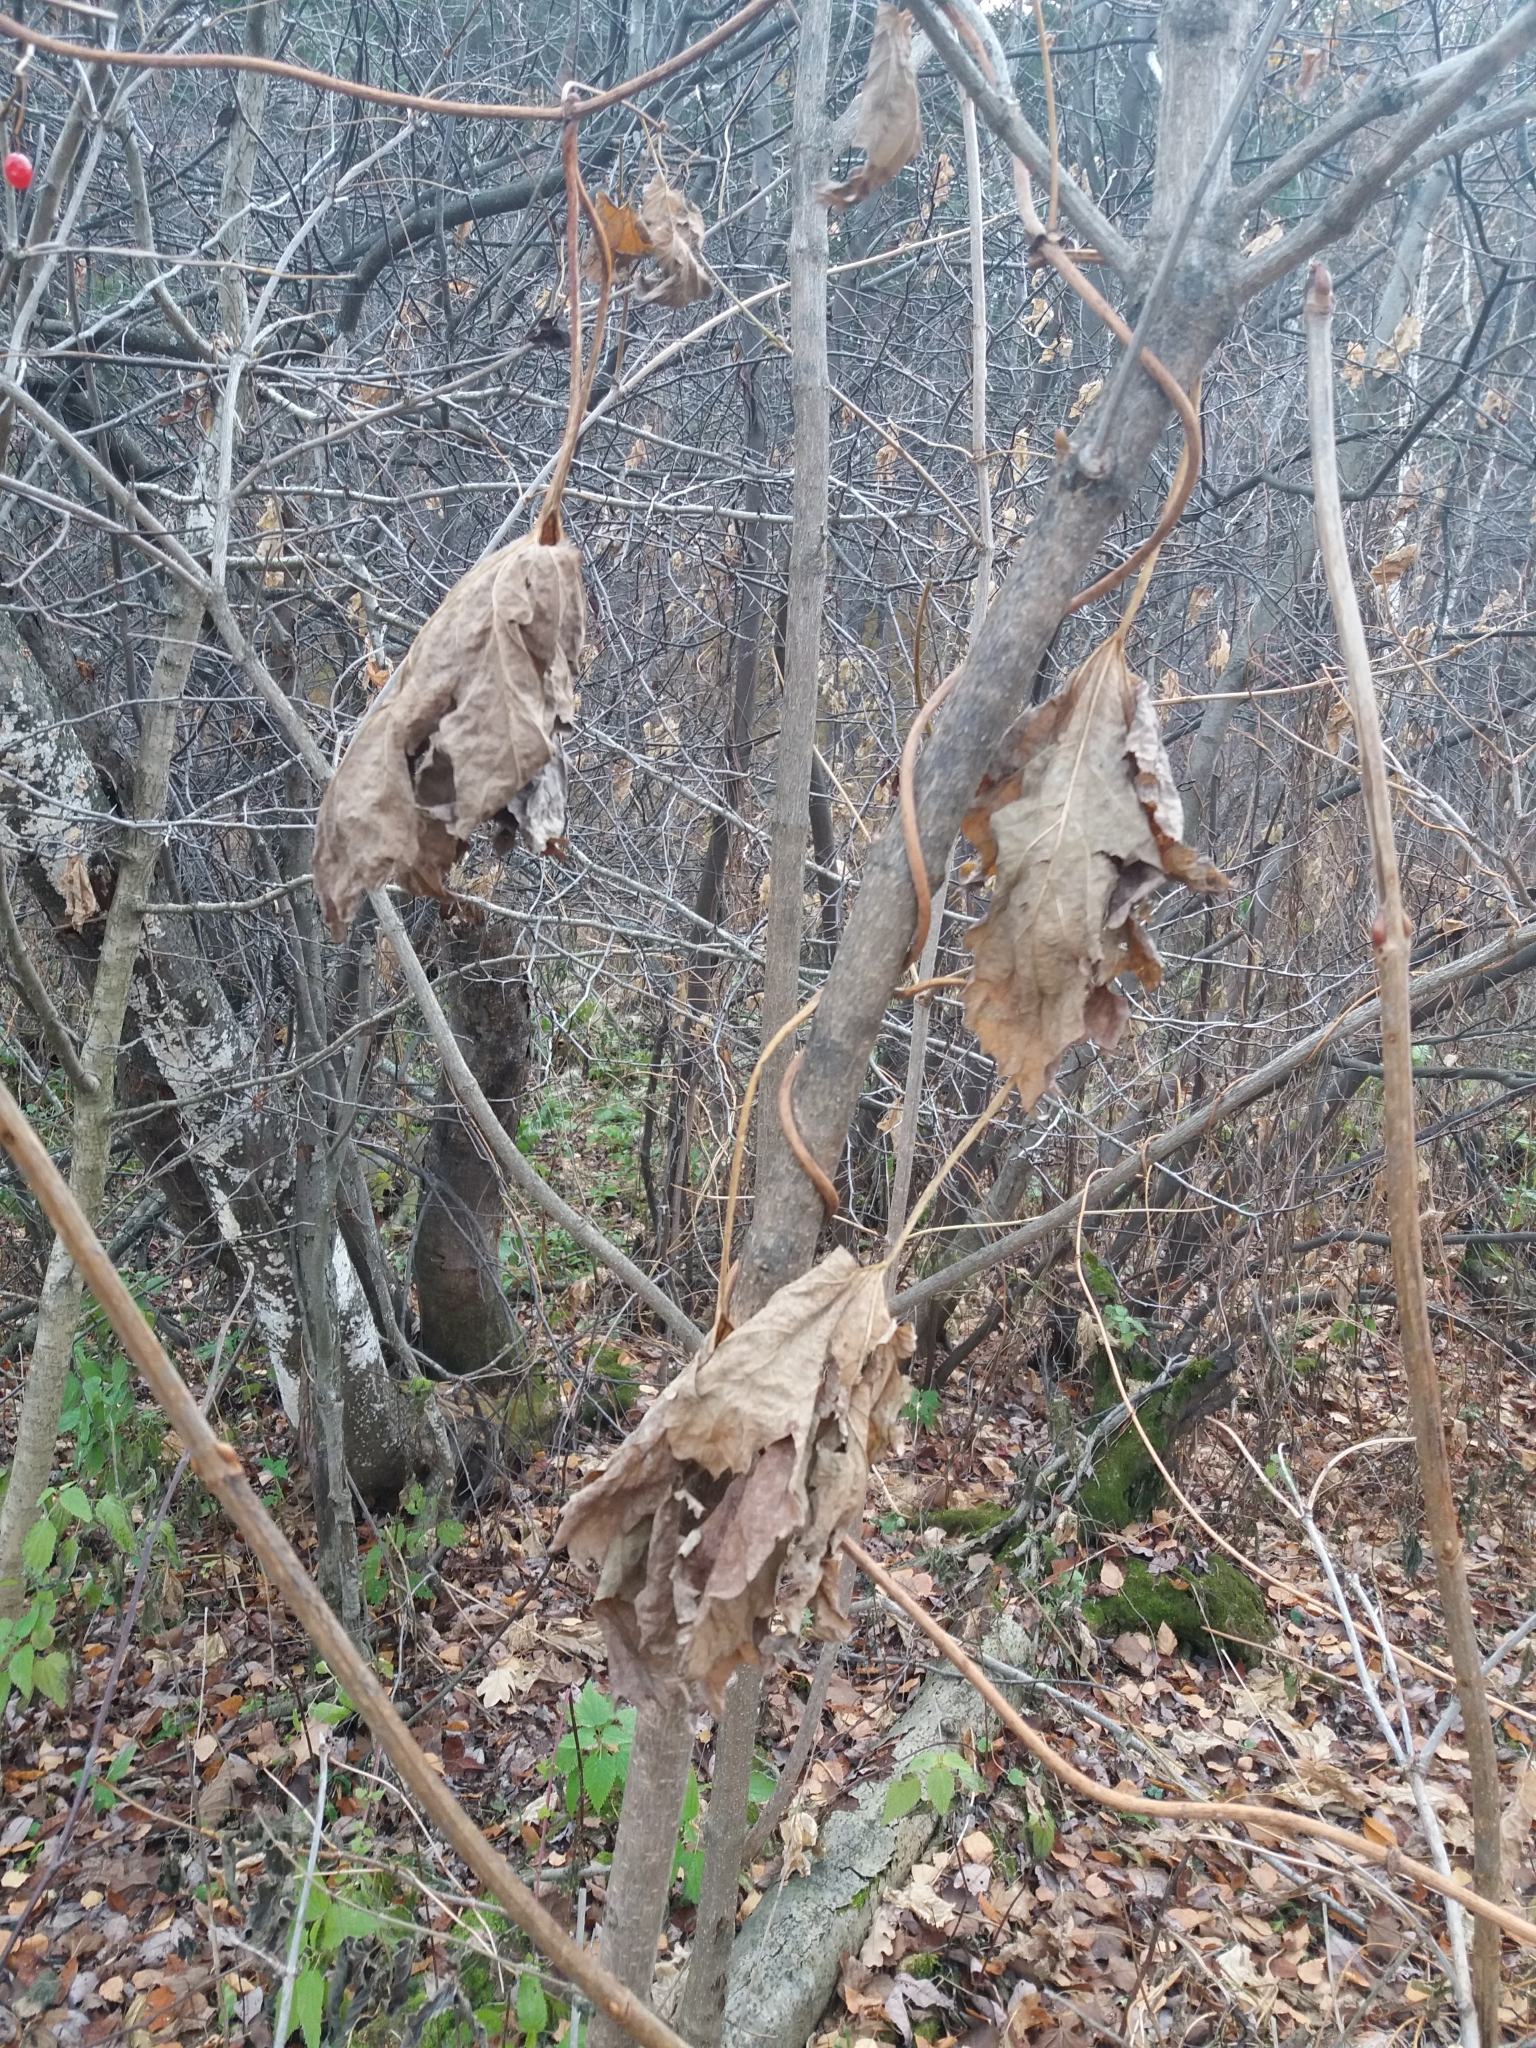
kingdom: Plantae
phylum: Tracheophyta
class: Magnoliopsida
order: Rosales
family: Cannabaceae
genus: Humulus
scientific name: Humulus lupulus
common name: Hop
